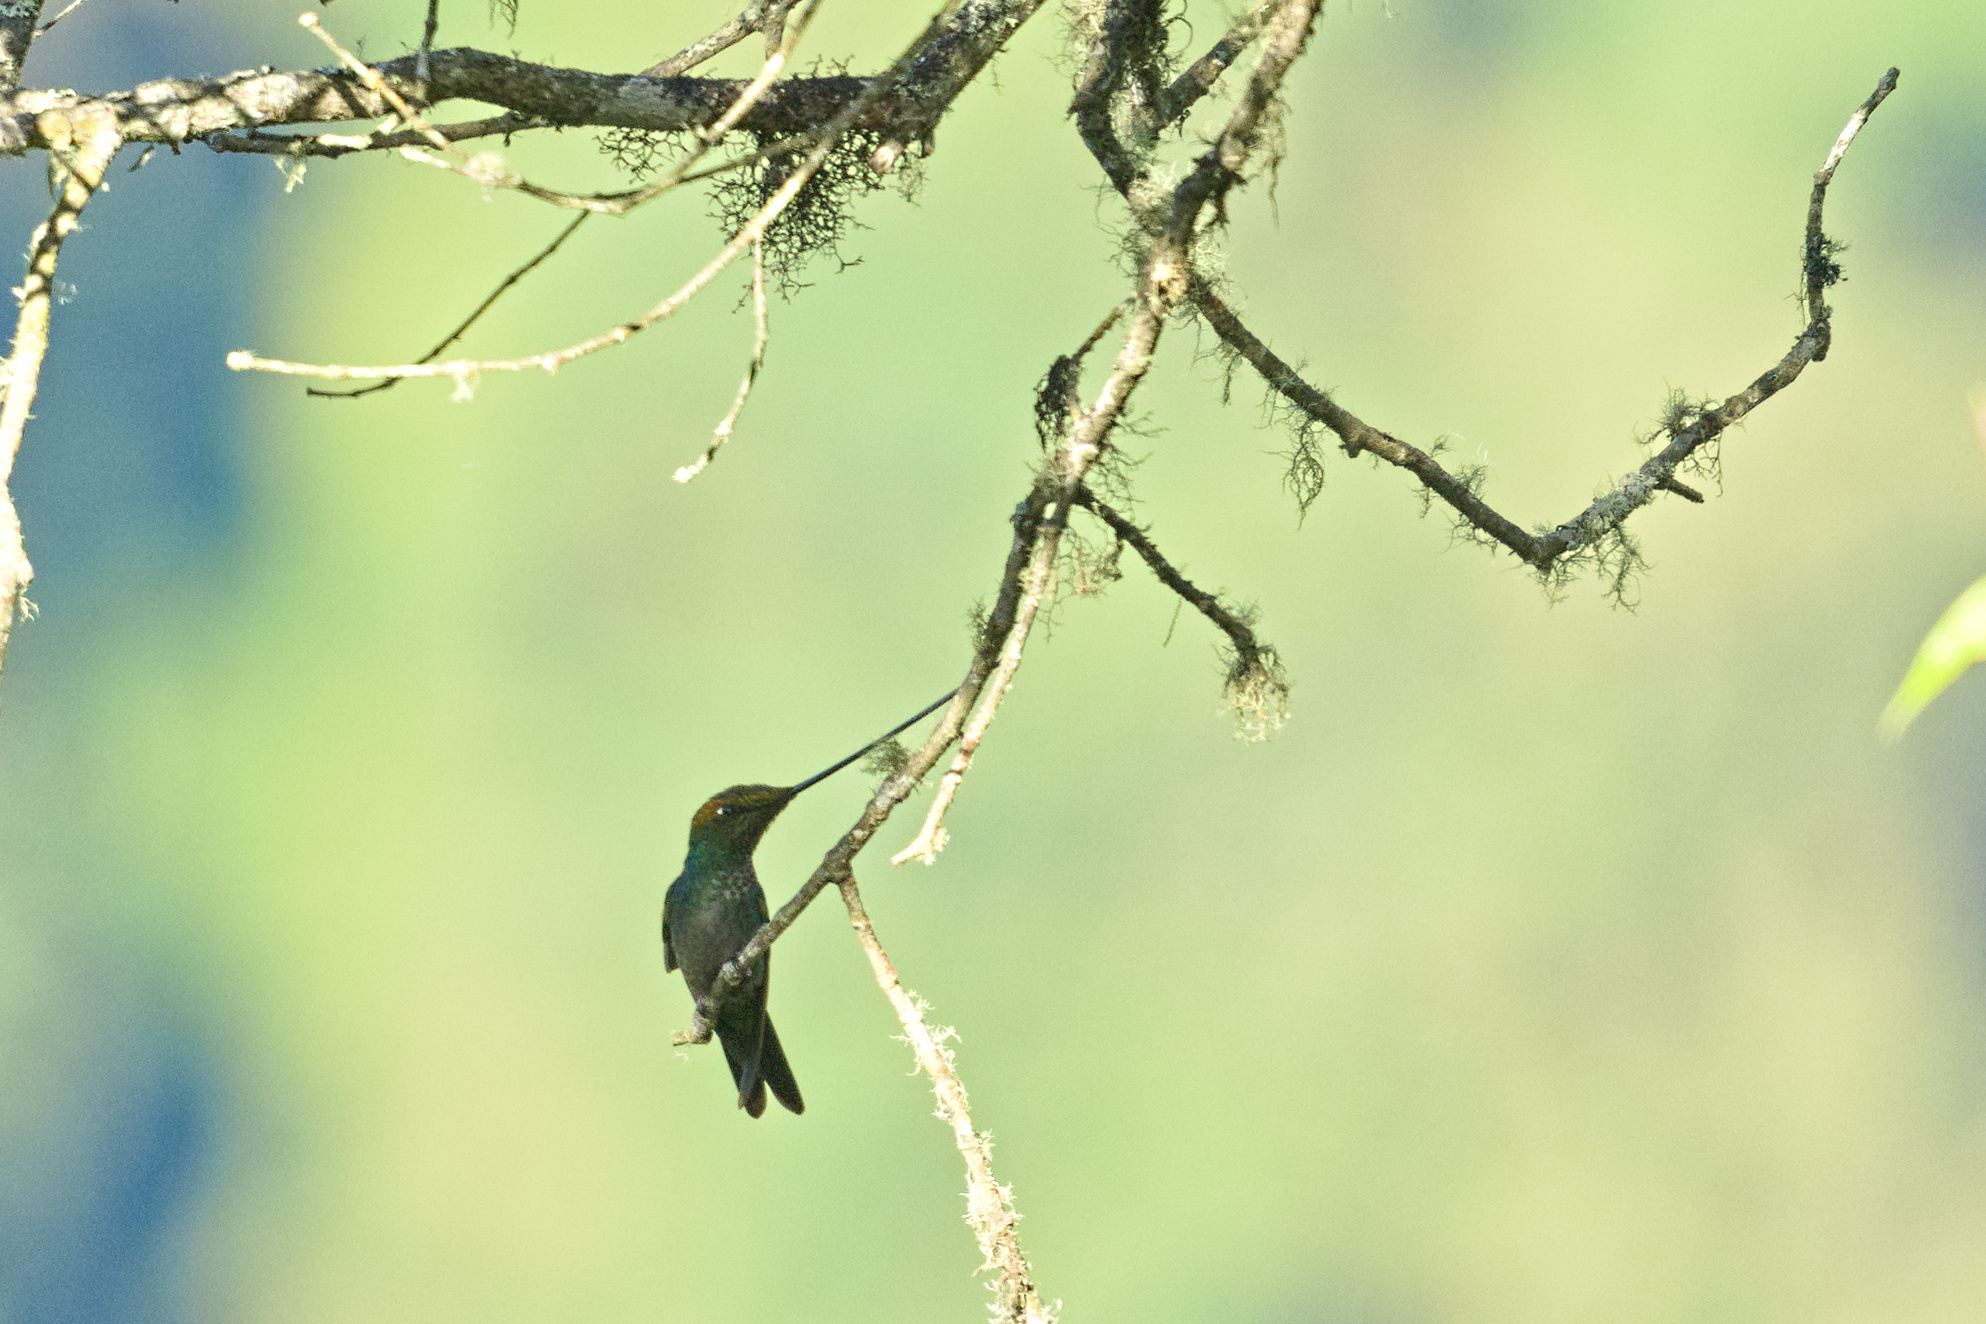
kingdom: Animalia
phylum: Chordata
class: Aves
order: Apodiformes
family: Trochilidae
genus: Ensifera
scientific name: Ensifera ensifera
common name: Sword-billed hummingbird
